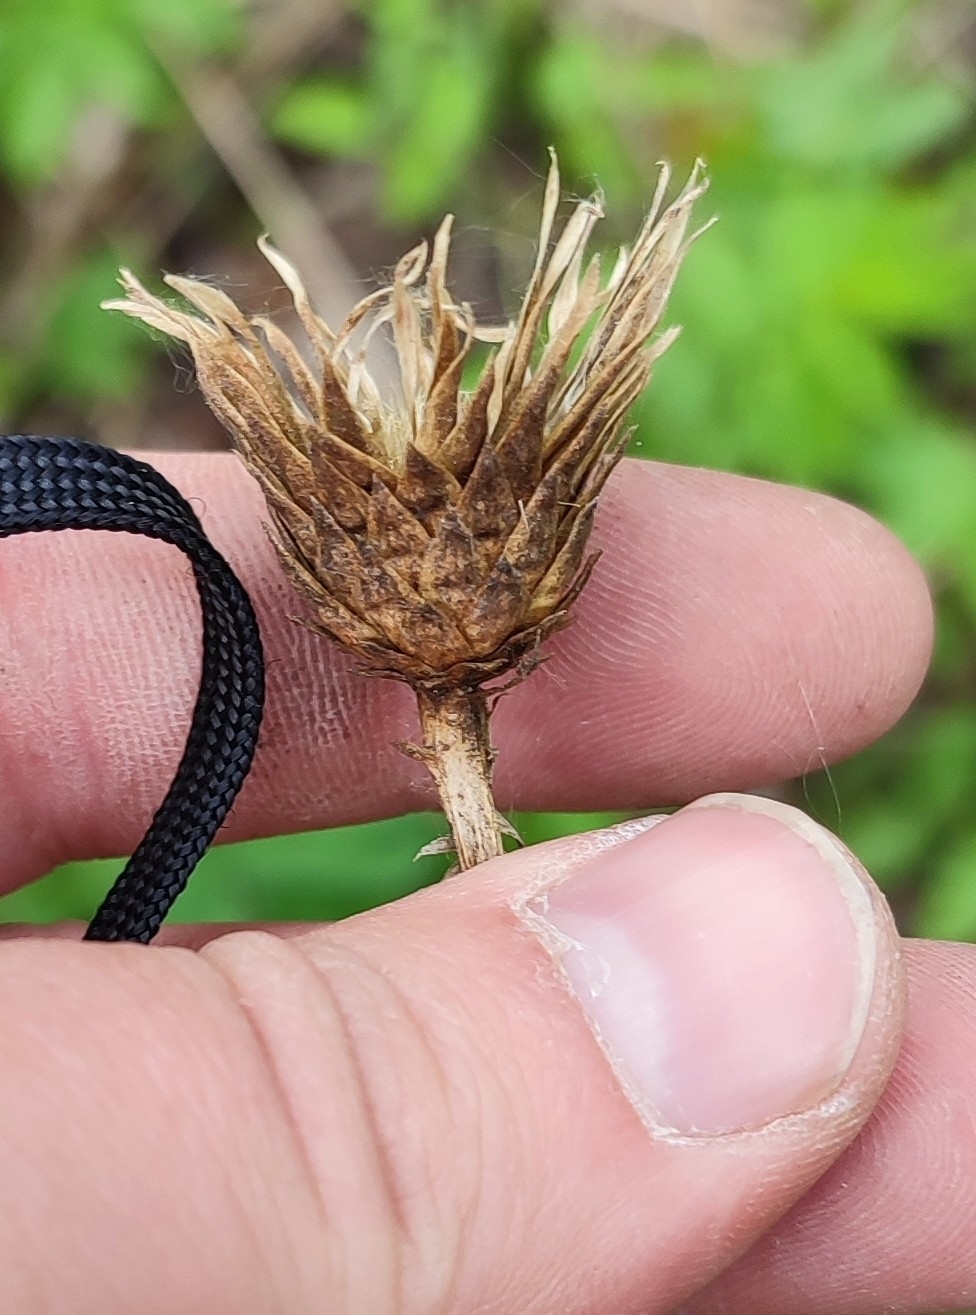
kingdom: Plantae
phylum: Tracheophyta
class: Magnoliopsida
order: Asterales
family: Asteraceae
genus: Serratula
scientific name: Serratula coronata
